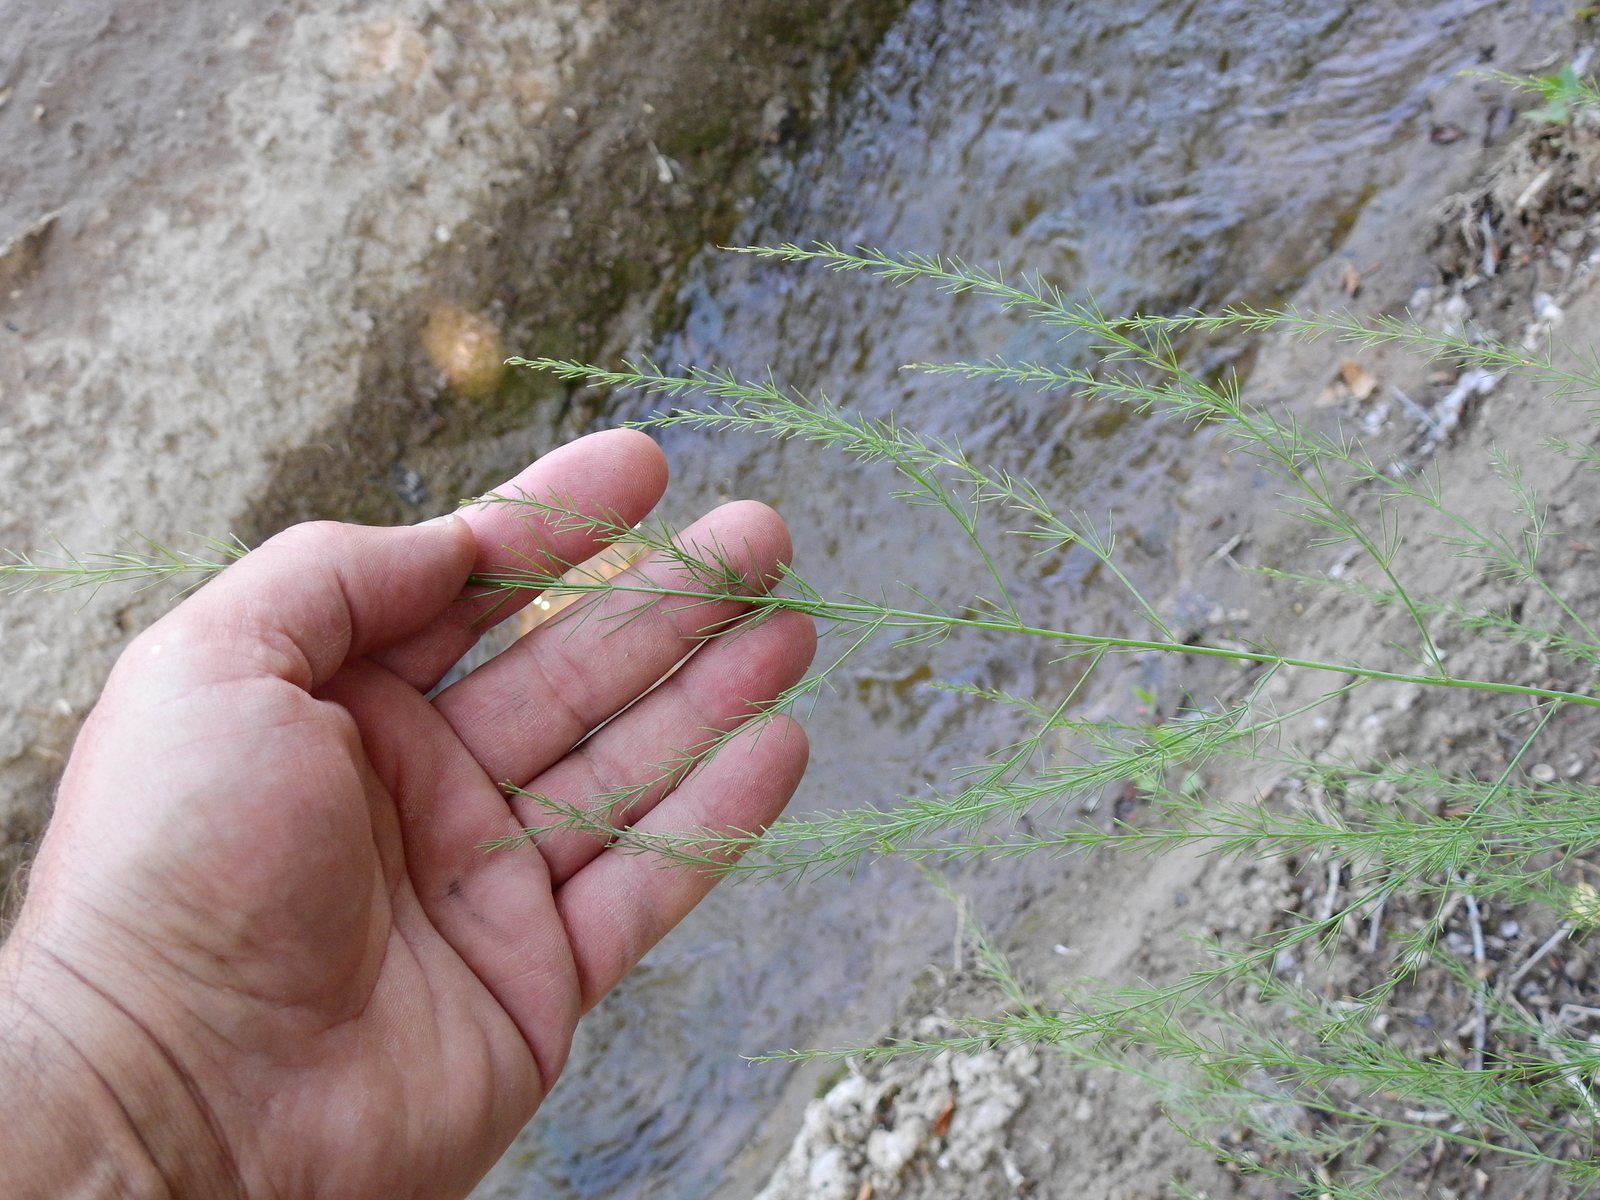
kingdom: Plantae
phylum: Tracheophyta
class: Liliopsida
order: Asparagales
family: Asparagaceae
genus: Asparagus
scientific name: Asparagus officinalis
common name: Garden asparagus
